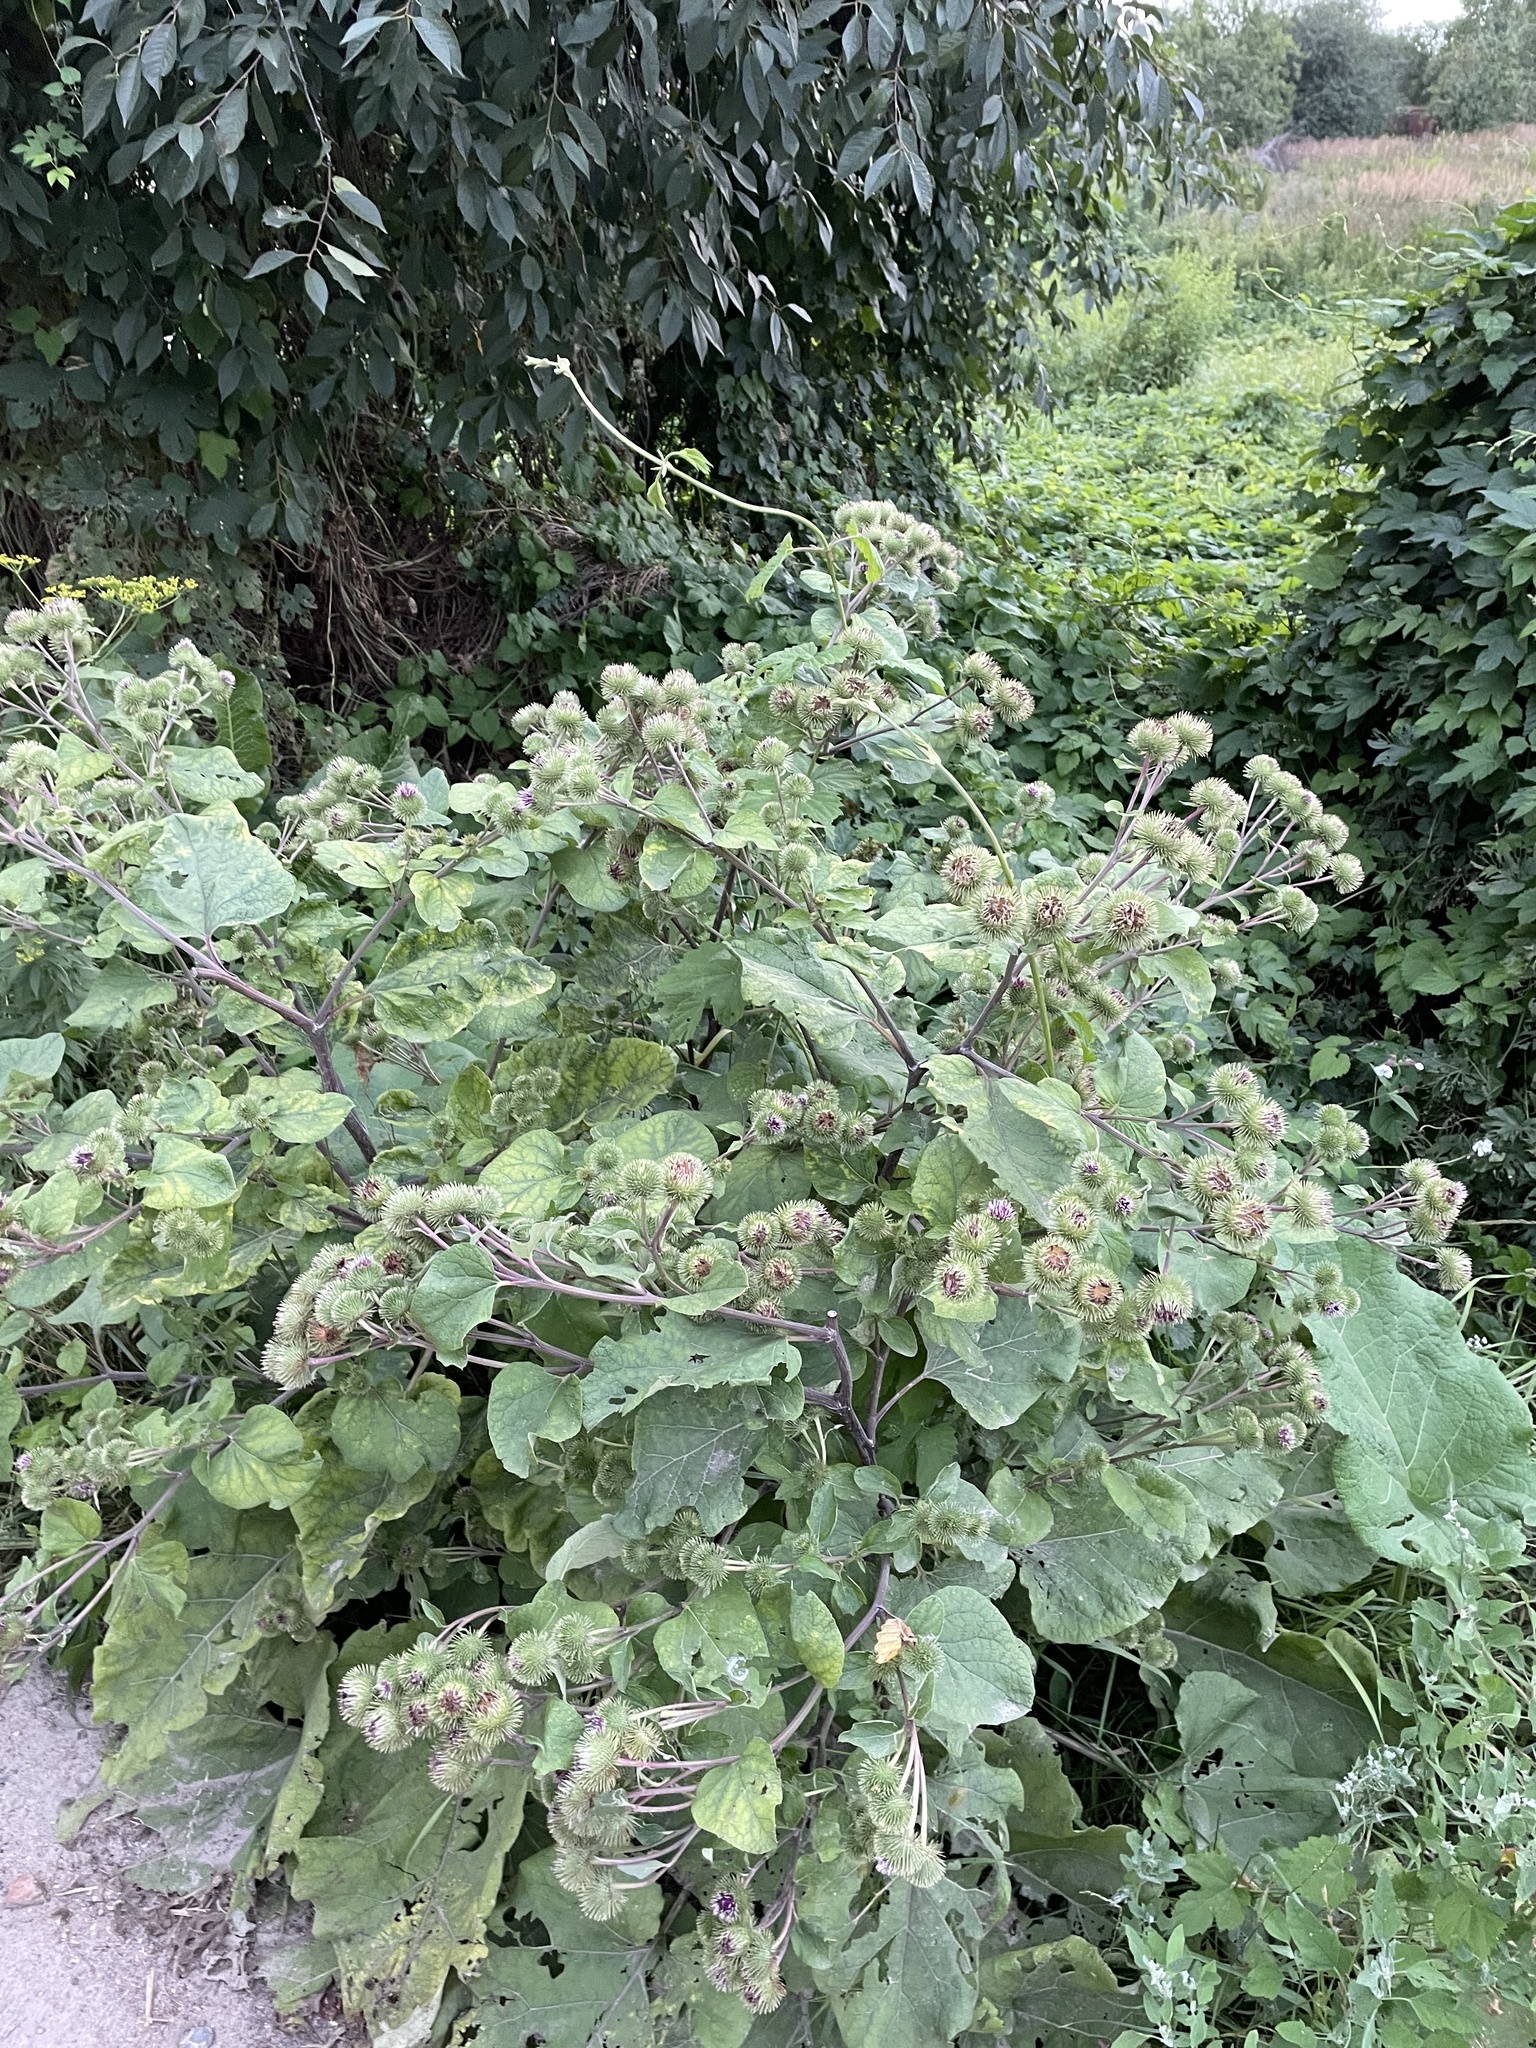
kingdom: Plantae
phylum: Tracheophyta
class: Magnoliopsida
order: Asterales
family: Asteraceae
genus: Arctium
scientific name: Arctium lappa
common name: Greater burdock
